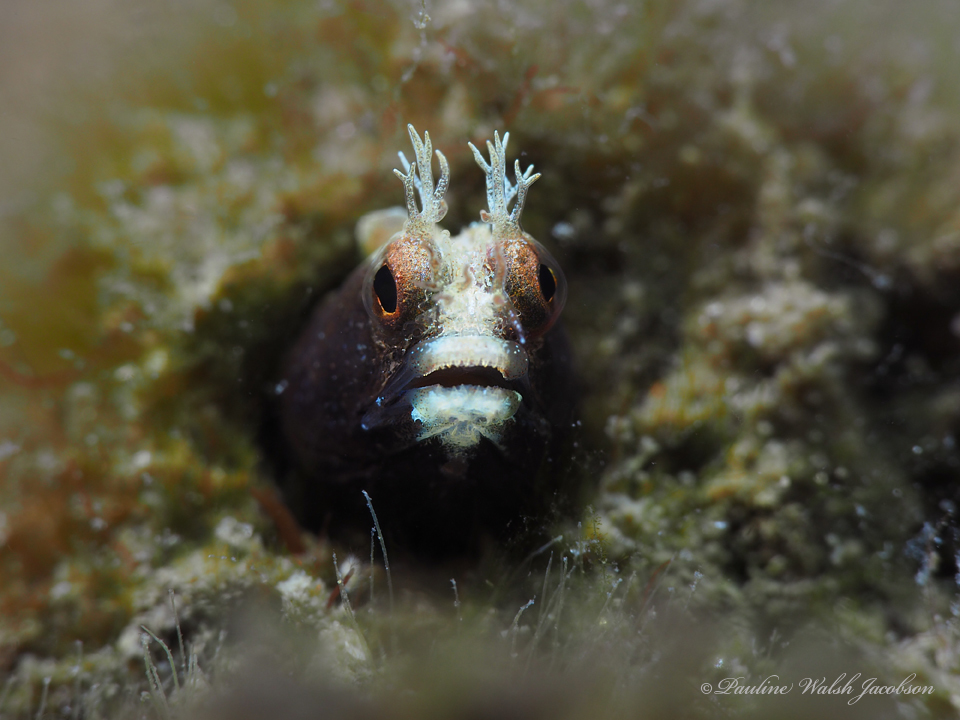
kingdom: Animalia
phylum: Chordata
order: Perciformes
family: Chaenopsidae
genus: Acanthemblemaria
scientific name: Acanthemblemaria aspera
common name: Roughhead blenny
